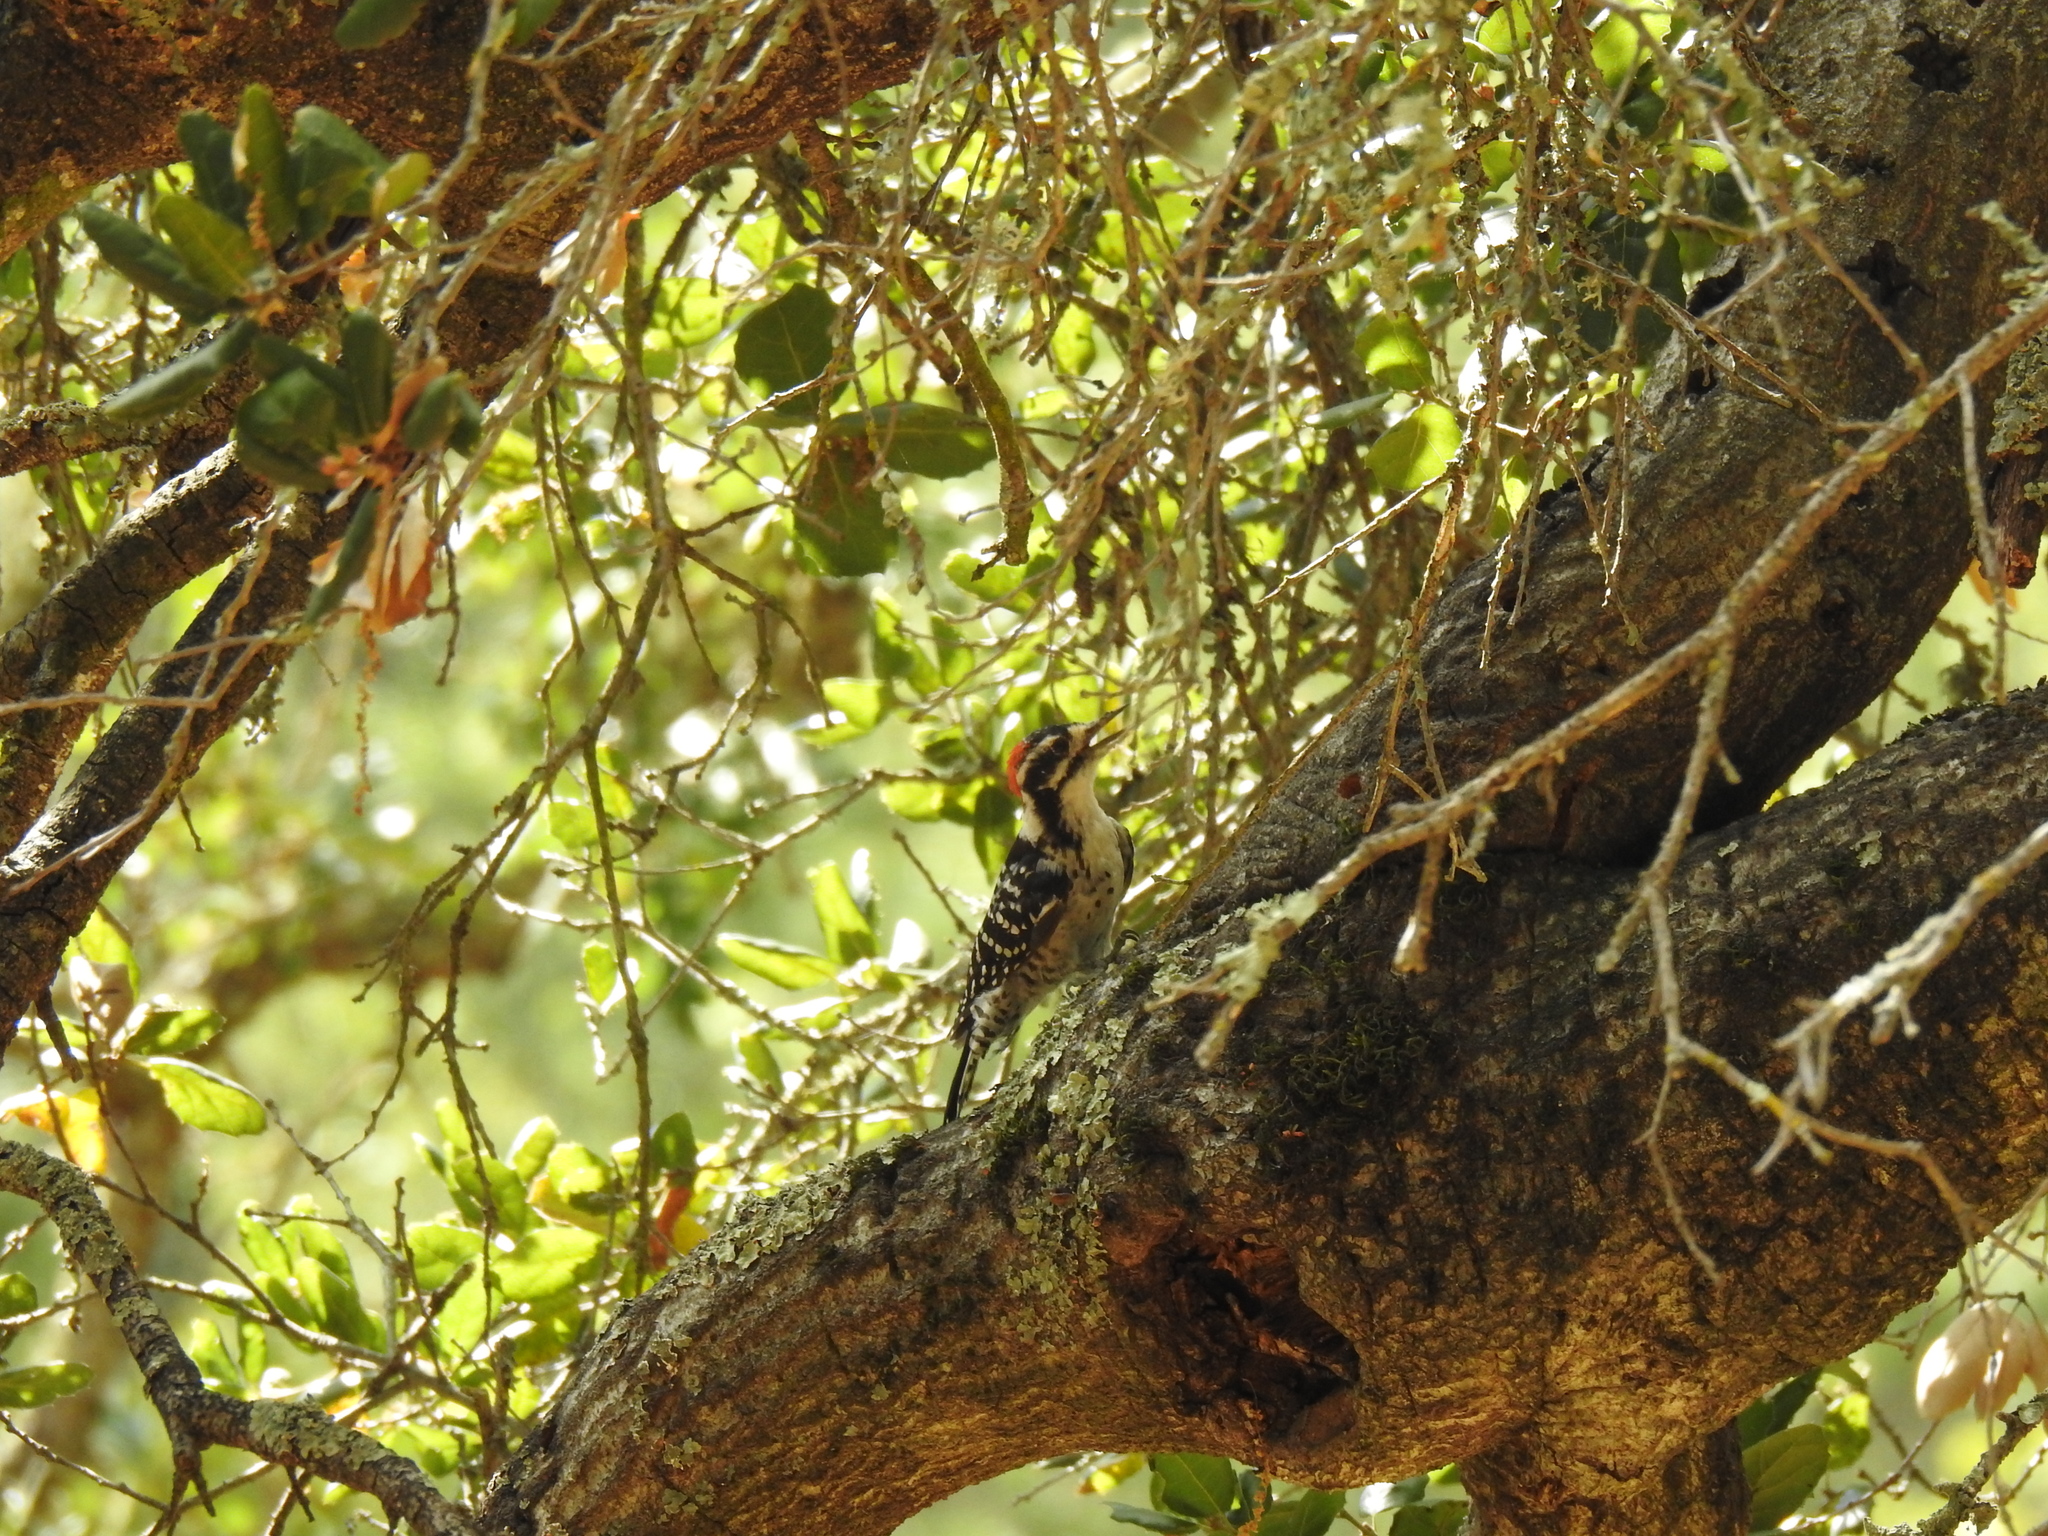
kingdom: Animalia
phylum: Chordata
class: Aves
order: Piciformes
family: Picidae
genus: Dryobates
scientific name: Dryobates nuttallii
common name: Nuttall's woodpecker
